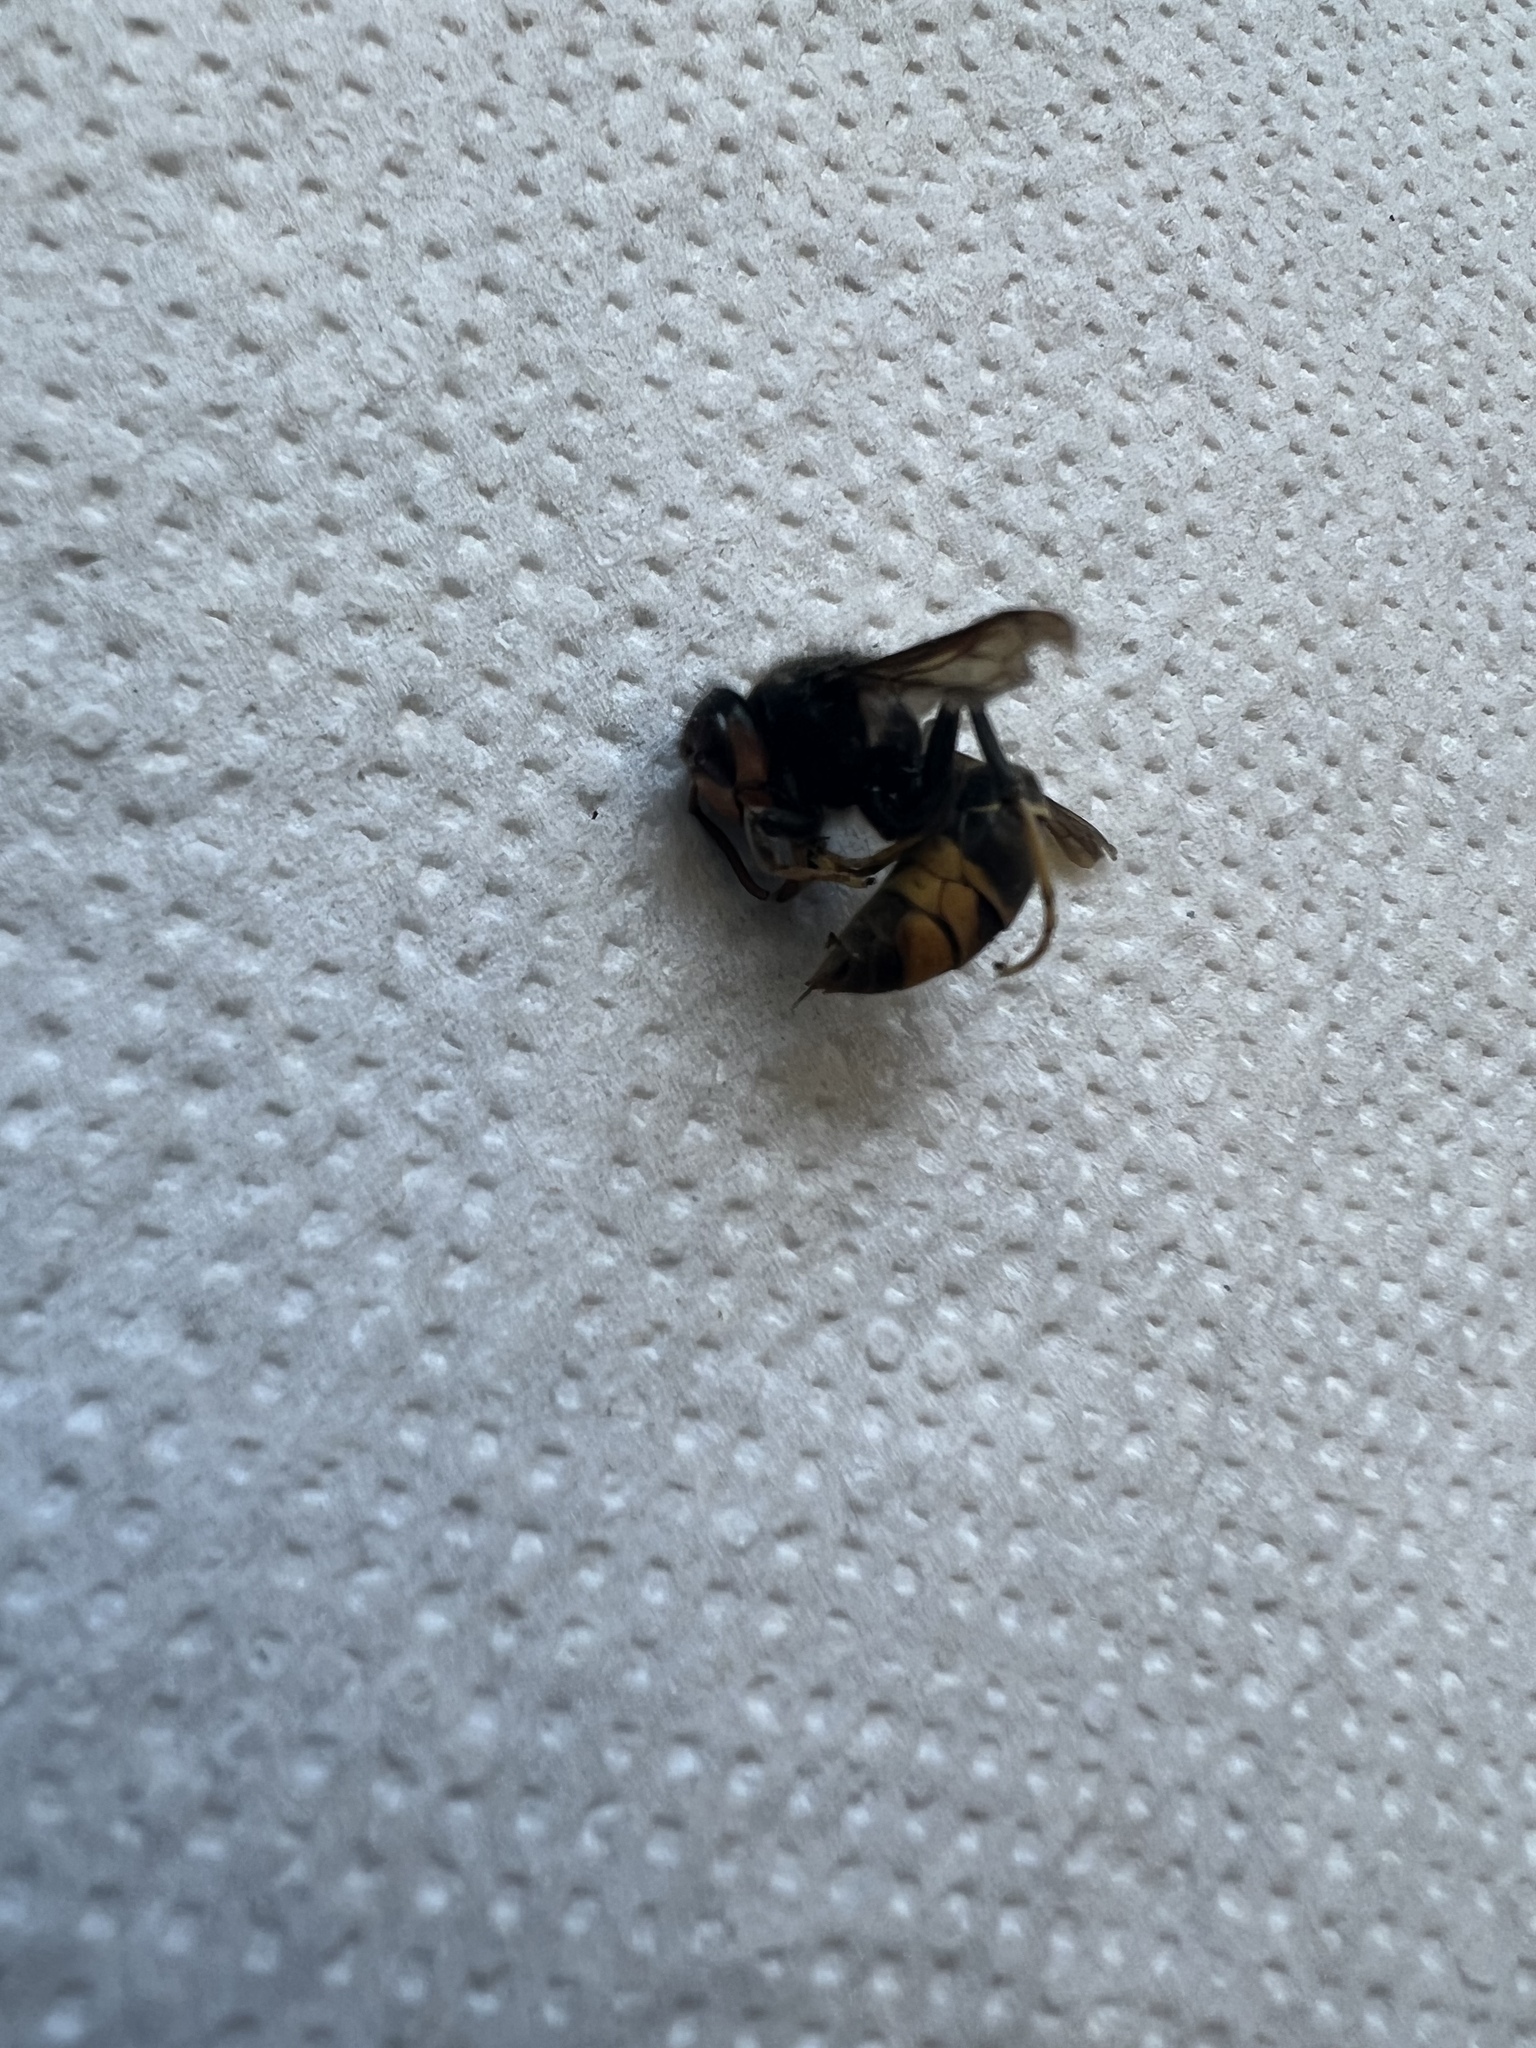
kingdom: Animalia
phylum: Arthropoda
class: Insecta
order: Hymenoptera
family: Vespidae
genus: Vespa
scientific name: Vespa velutina
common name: Asian hornet
